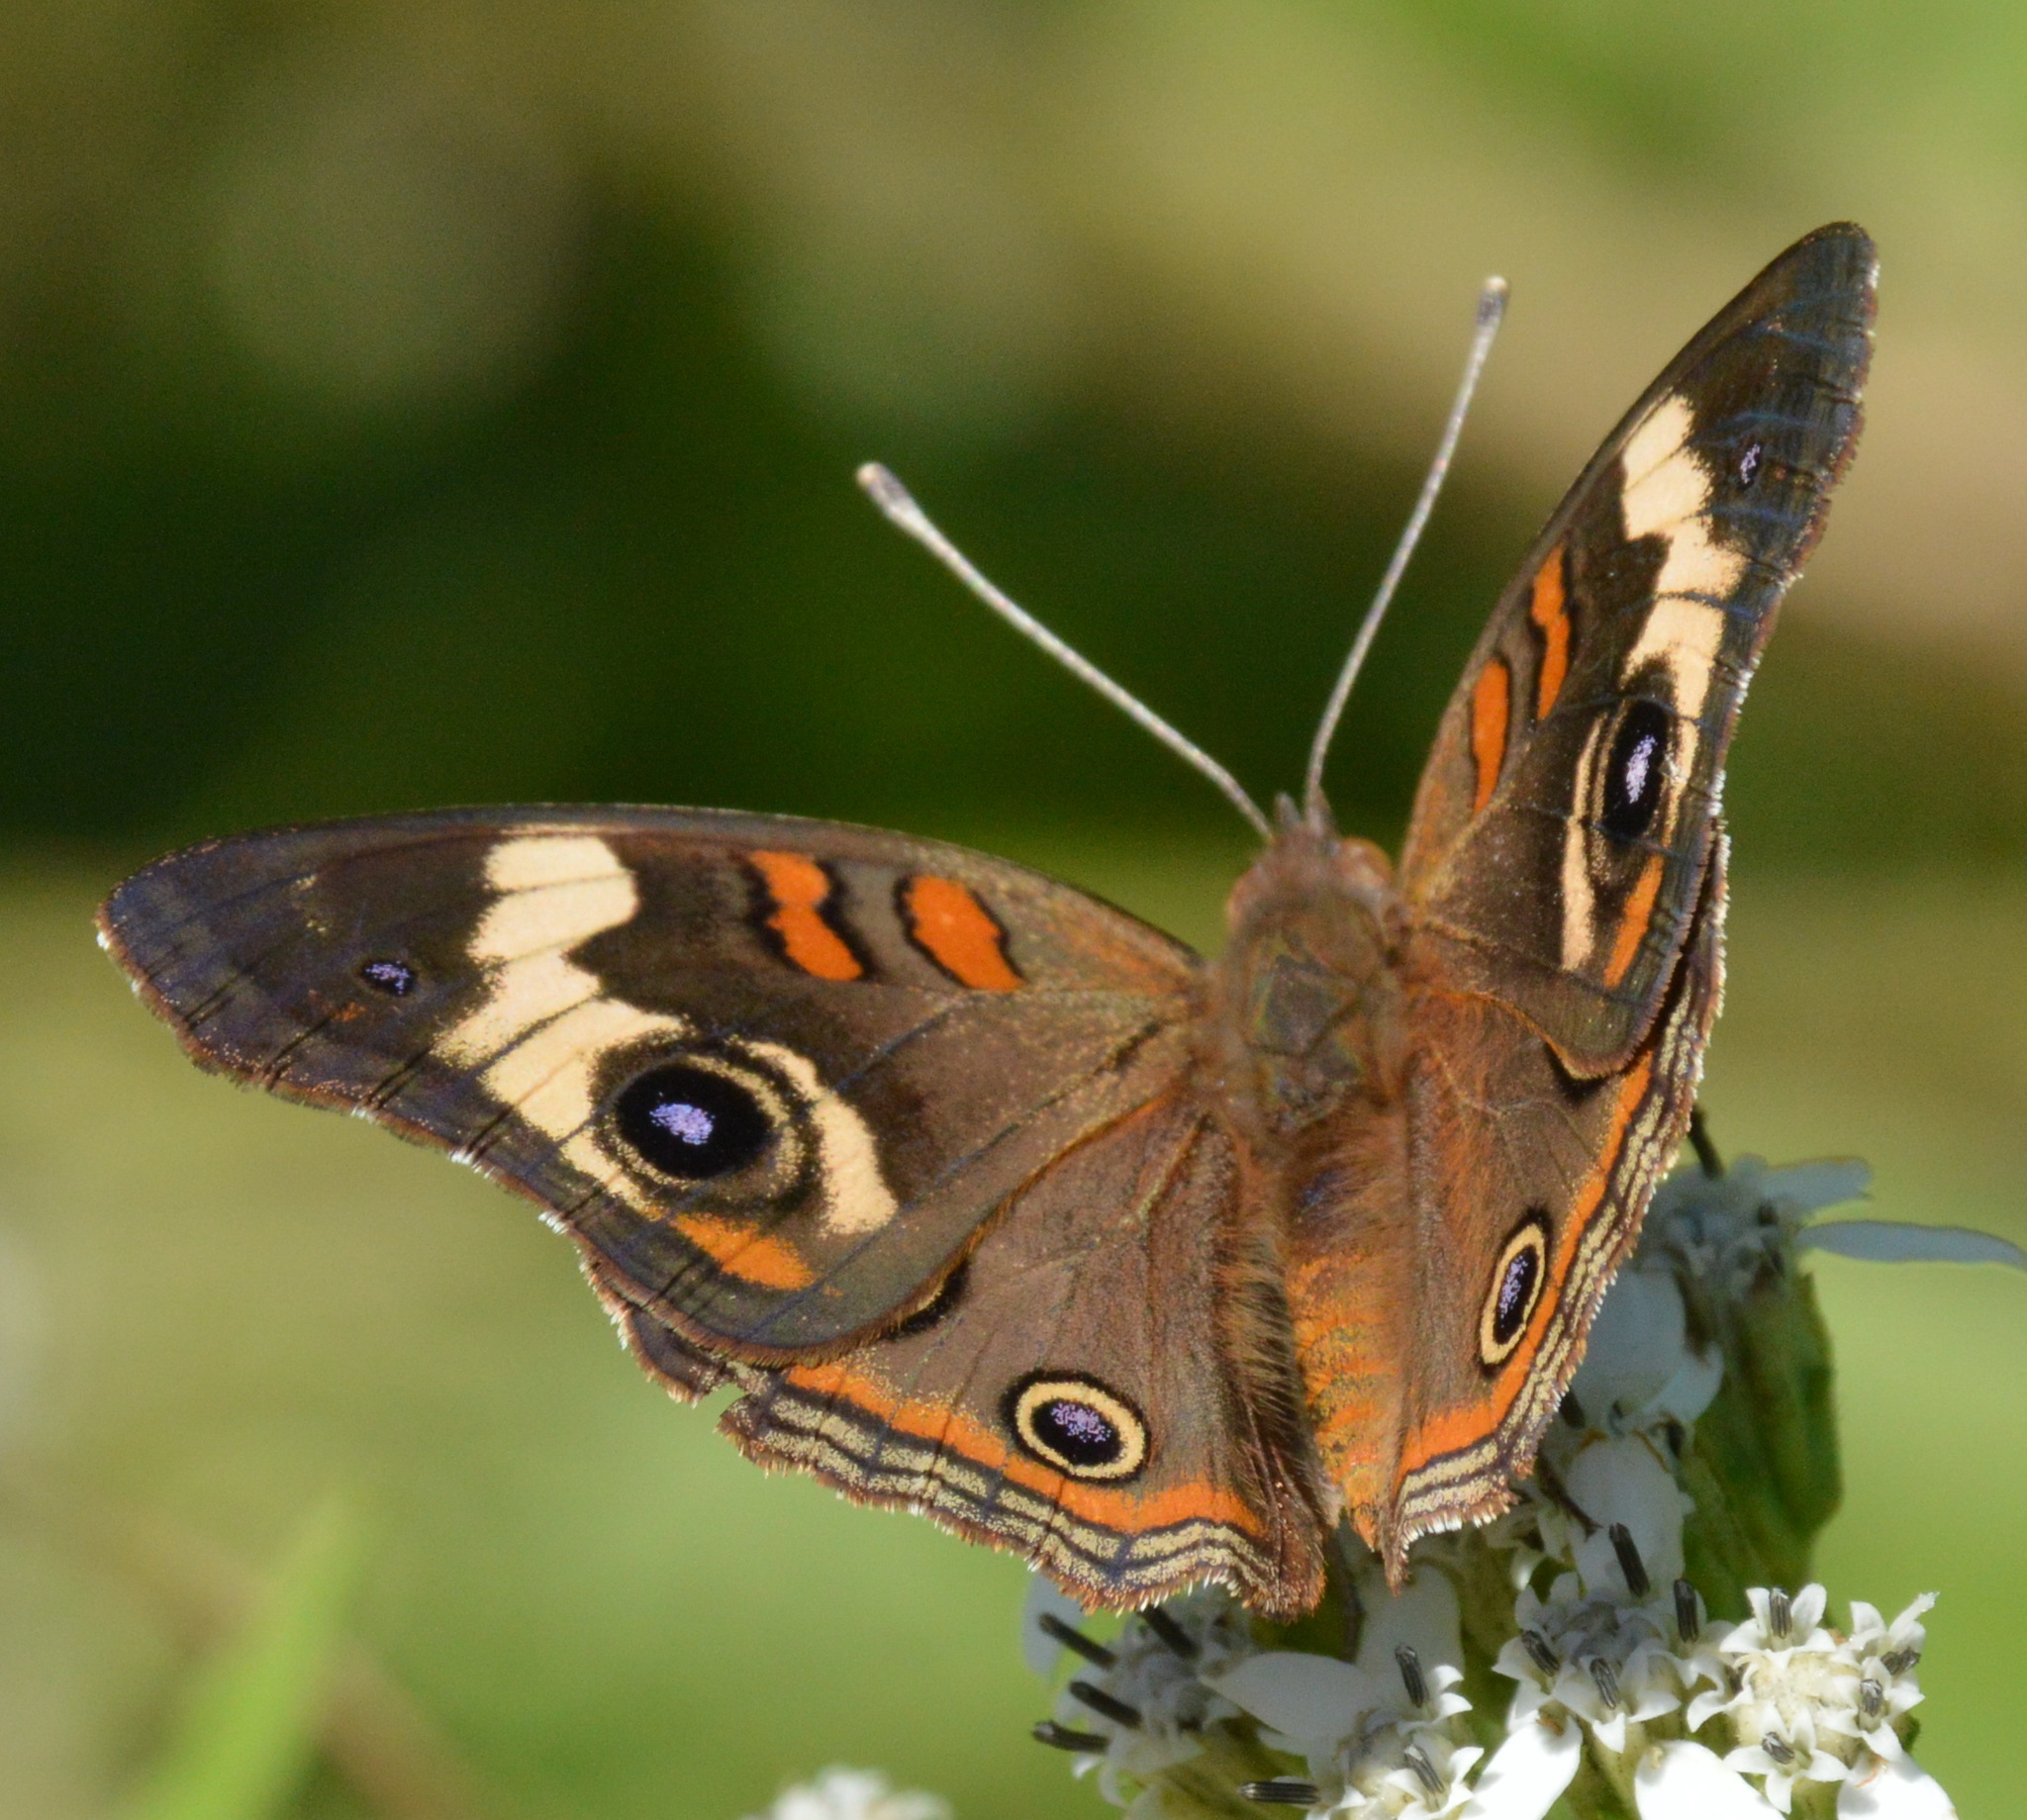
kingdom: Animalia
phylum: Arthropoda
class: Insecta
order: Lepidoptera
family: Nymphalidae
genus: Junonia
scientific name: Junonia coenia
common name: Common buckeye
